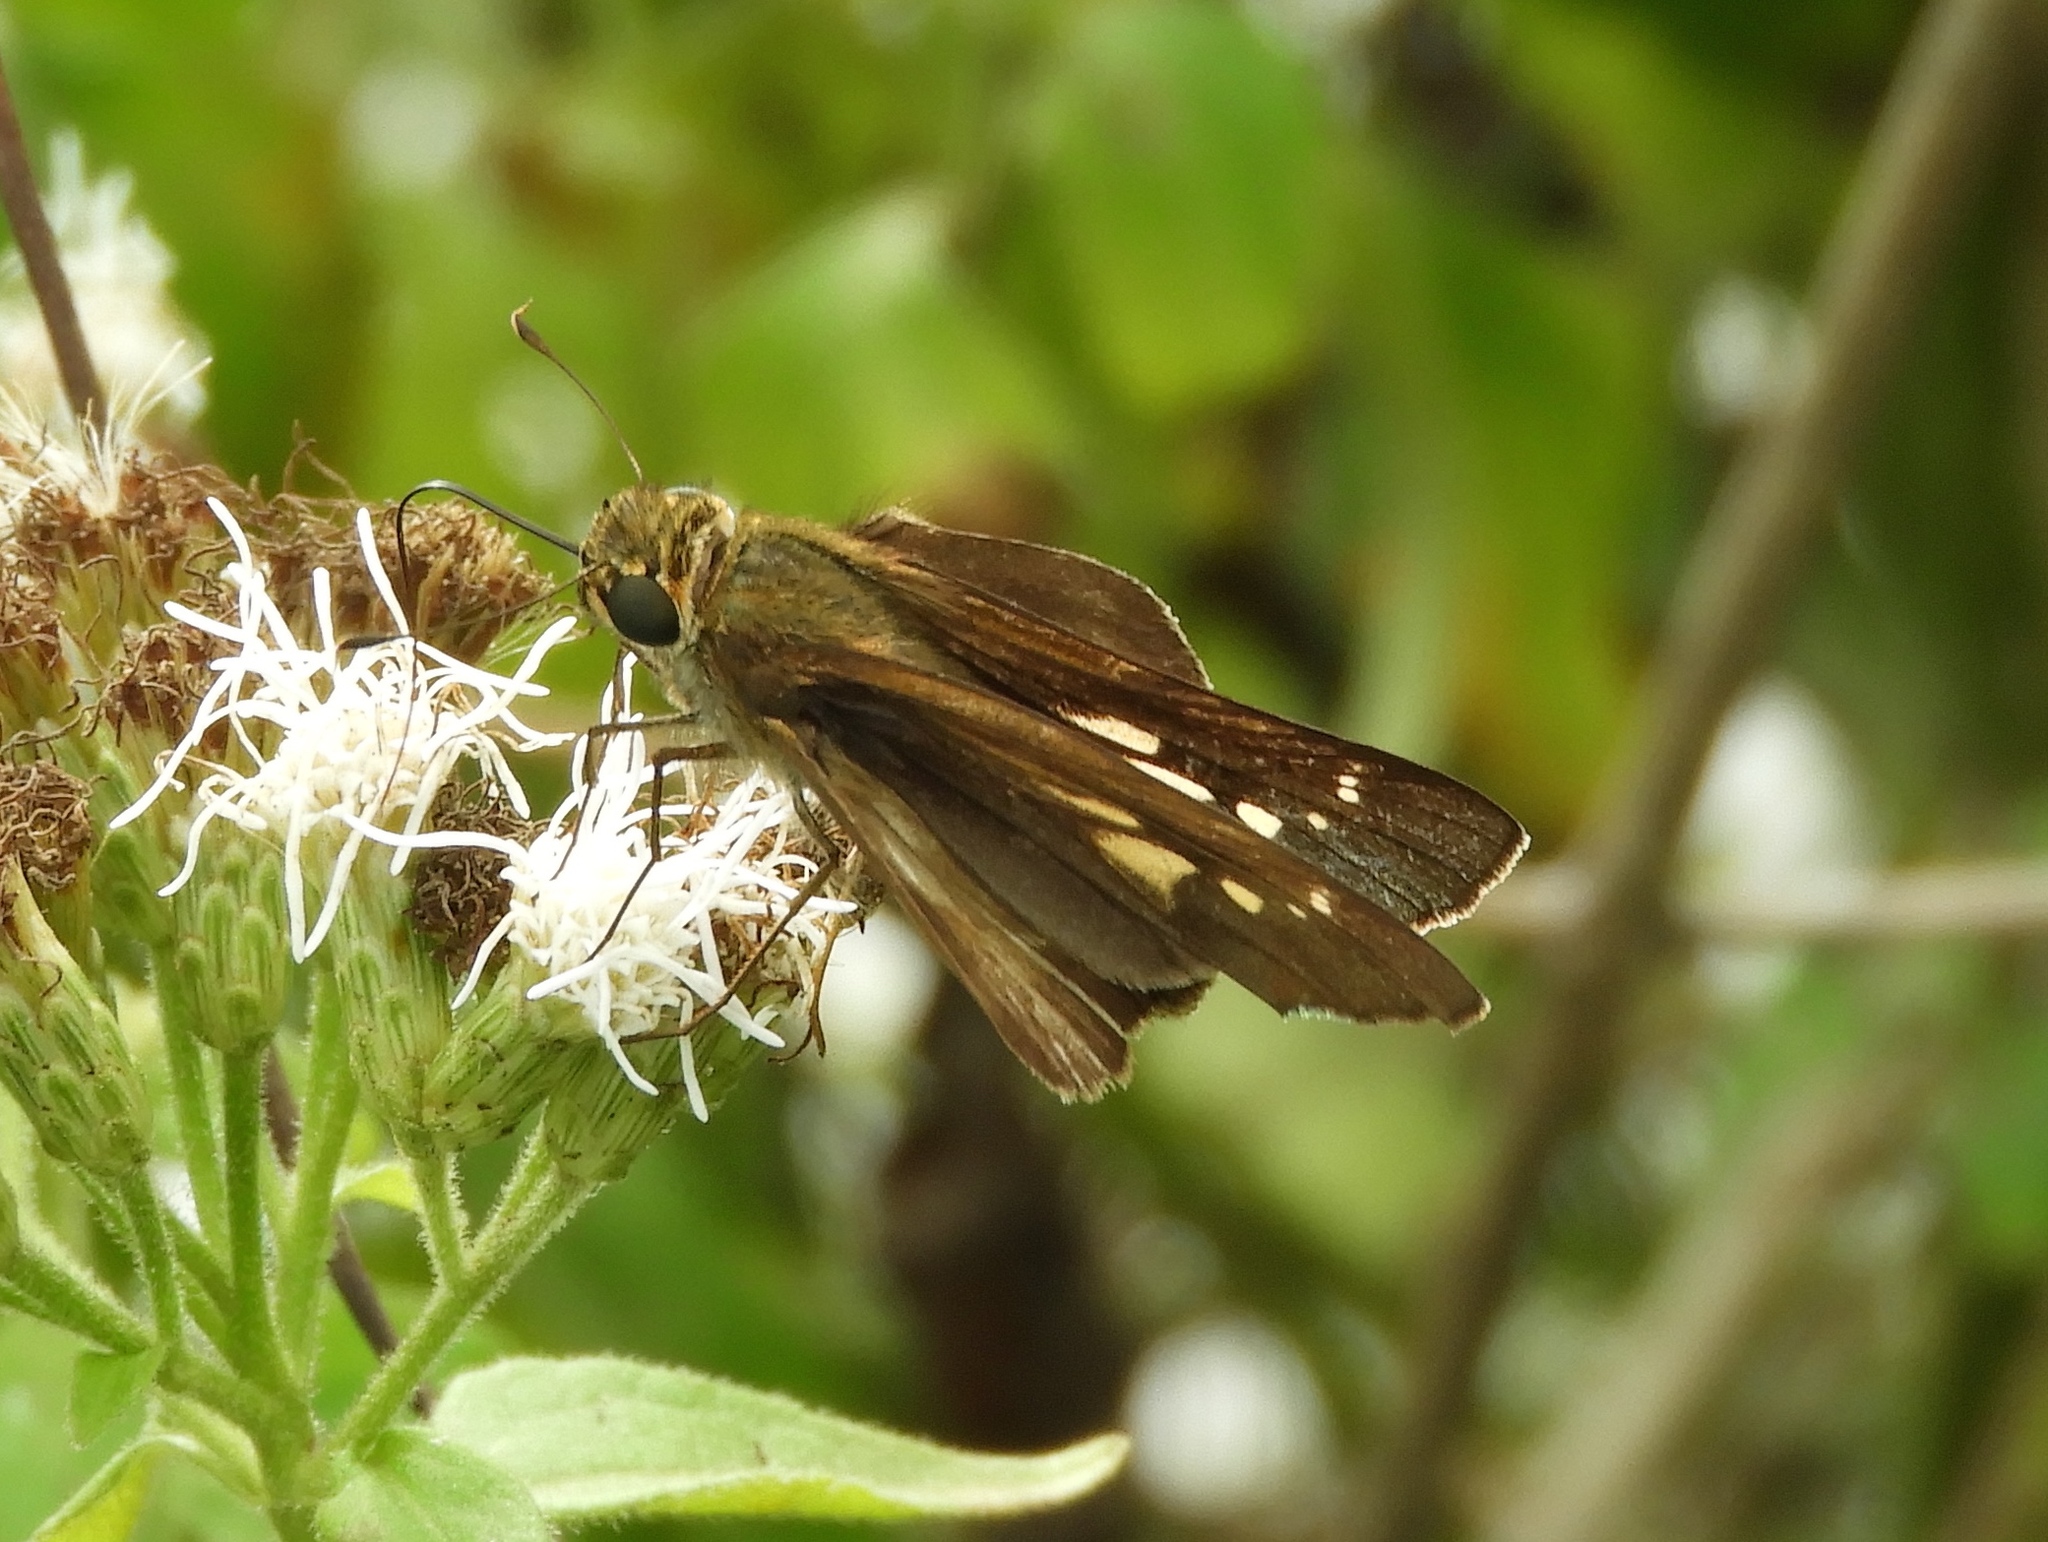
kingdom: Animalia
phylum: Arthropoda
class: Insecta
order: Lepidoptera
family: Hesperiidae
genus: Panoquina
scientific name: Panoquina
